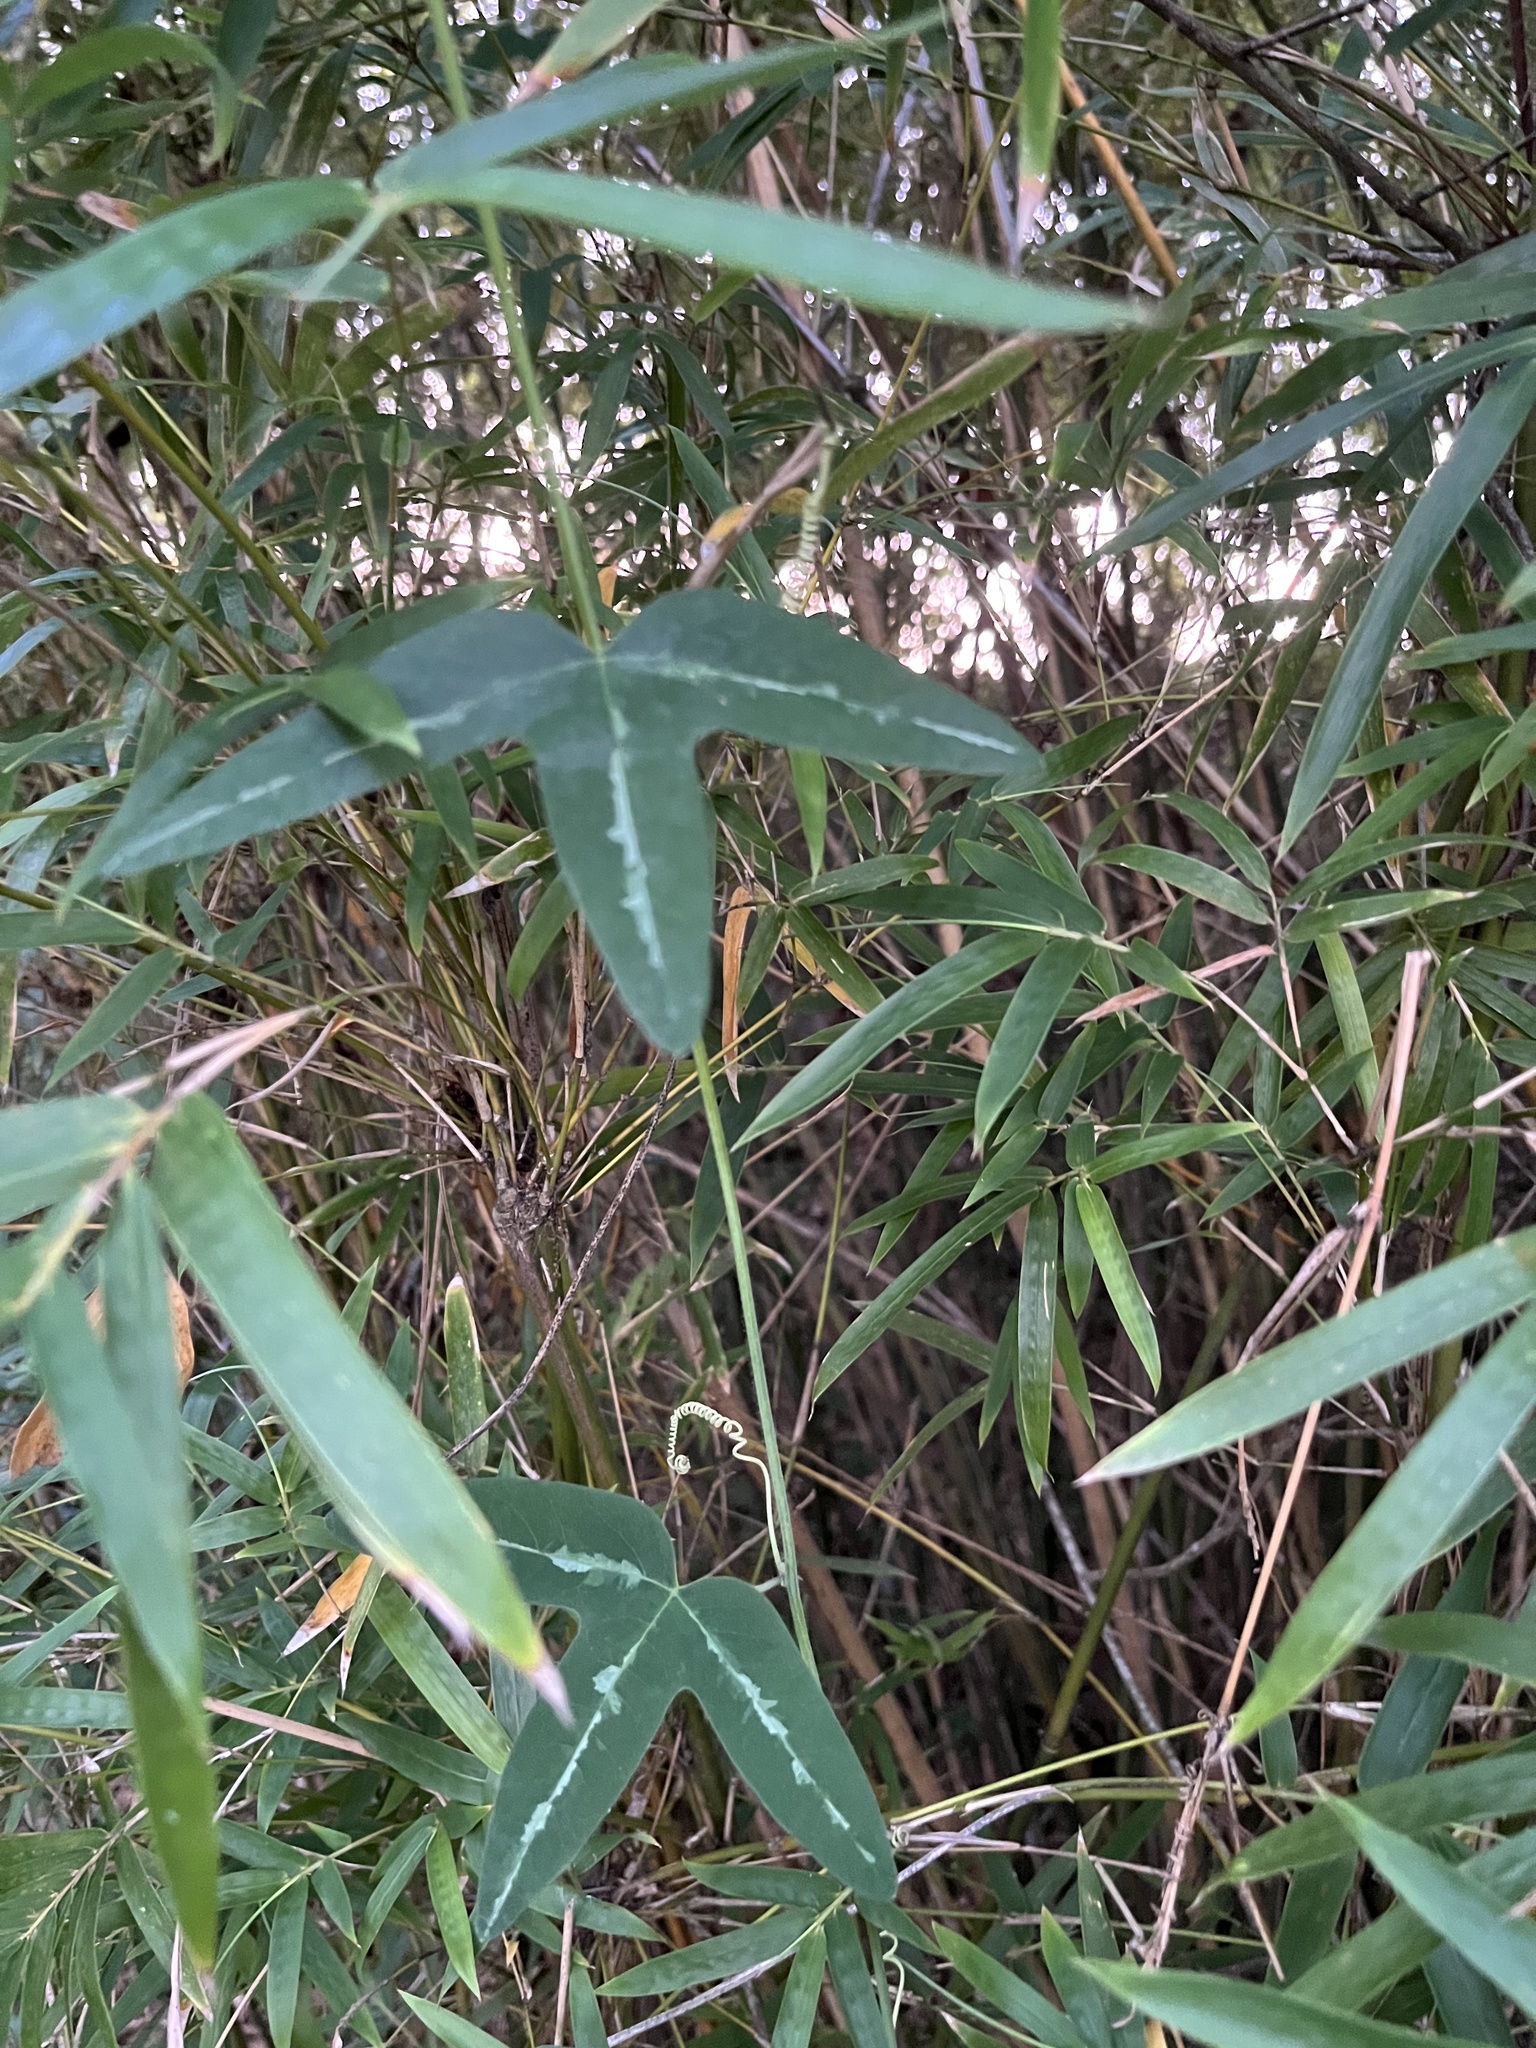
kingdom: Plantae
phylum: Tracheophyta
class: Magnoliopsida
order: Malpighiales
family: Passifloraceae
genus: Passiflora
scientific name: Passiflora lutea
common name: Yellow passionflower
